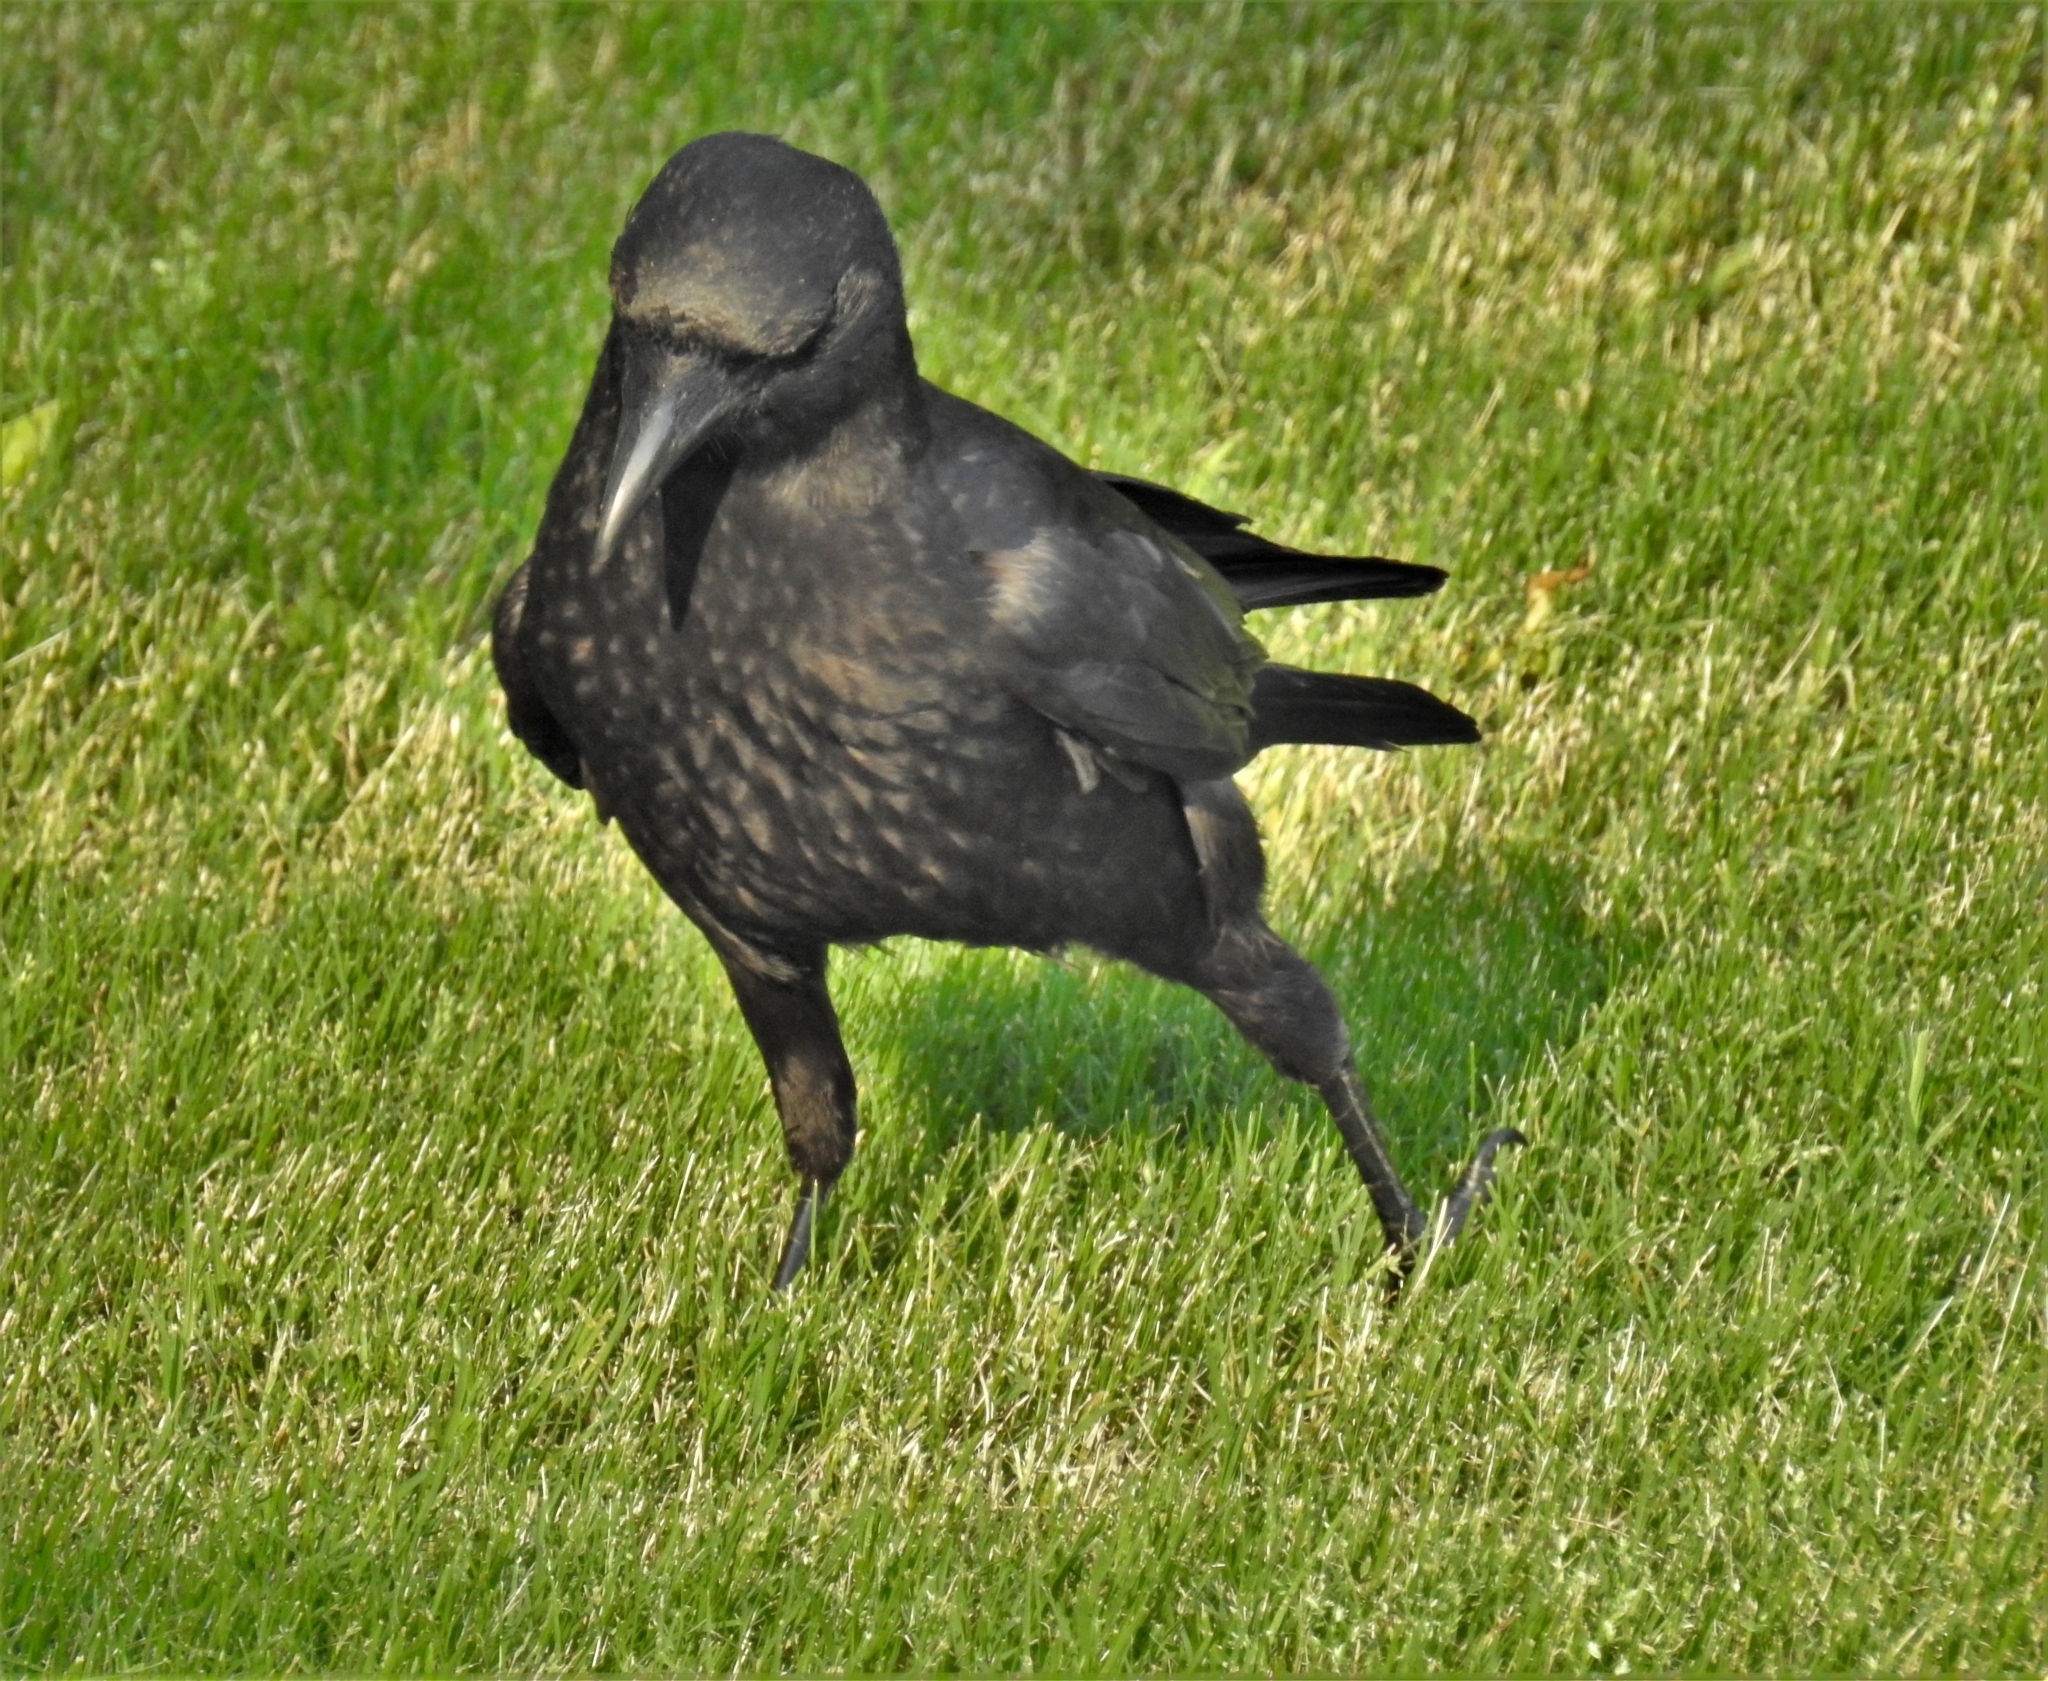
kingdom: Animalia
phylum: Chordata
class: Aves
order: Passeriformes
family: Corvidae
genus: Corvus
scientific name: Corvus brachyrhynchos
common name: American crow
